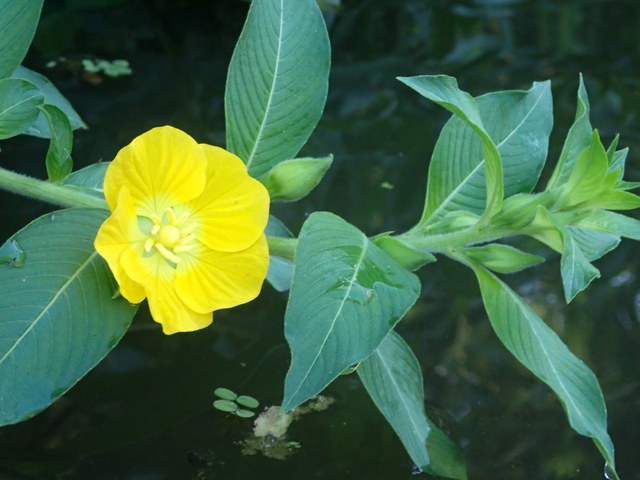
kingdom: Plantae
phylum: Tracheophyta
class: Magnoliopsida
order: Myrtales
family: Onagraceae
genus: Ludwigia
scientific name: Ludwigia peruviana
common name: Peruvian primrose-willow
